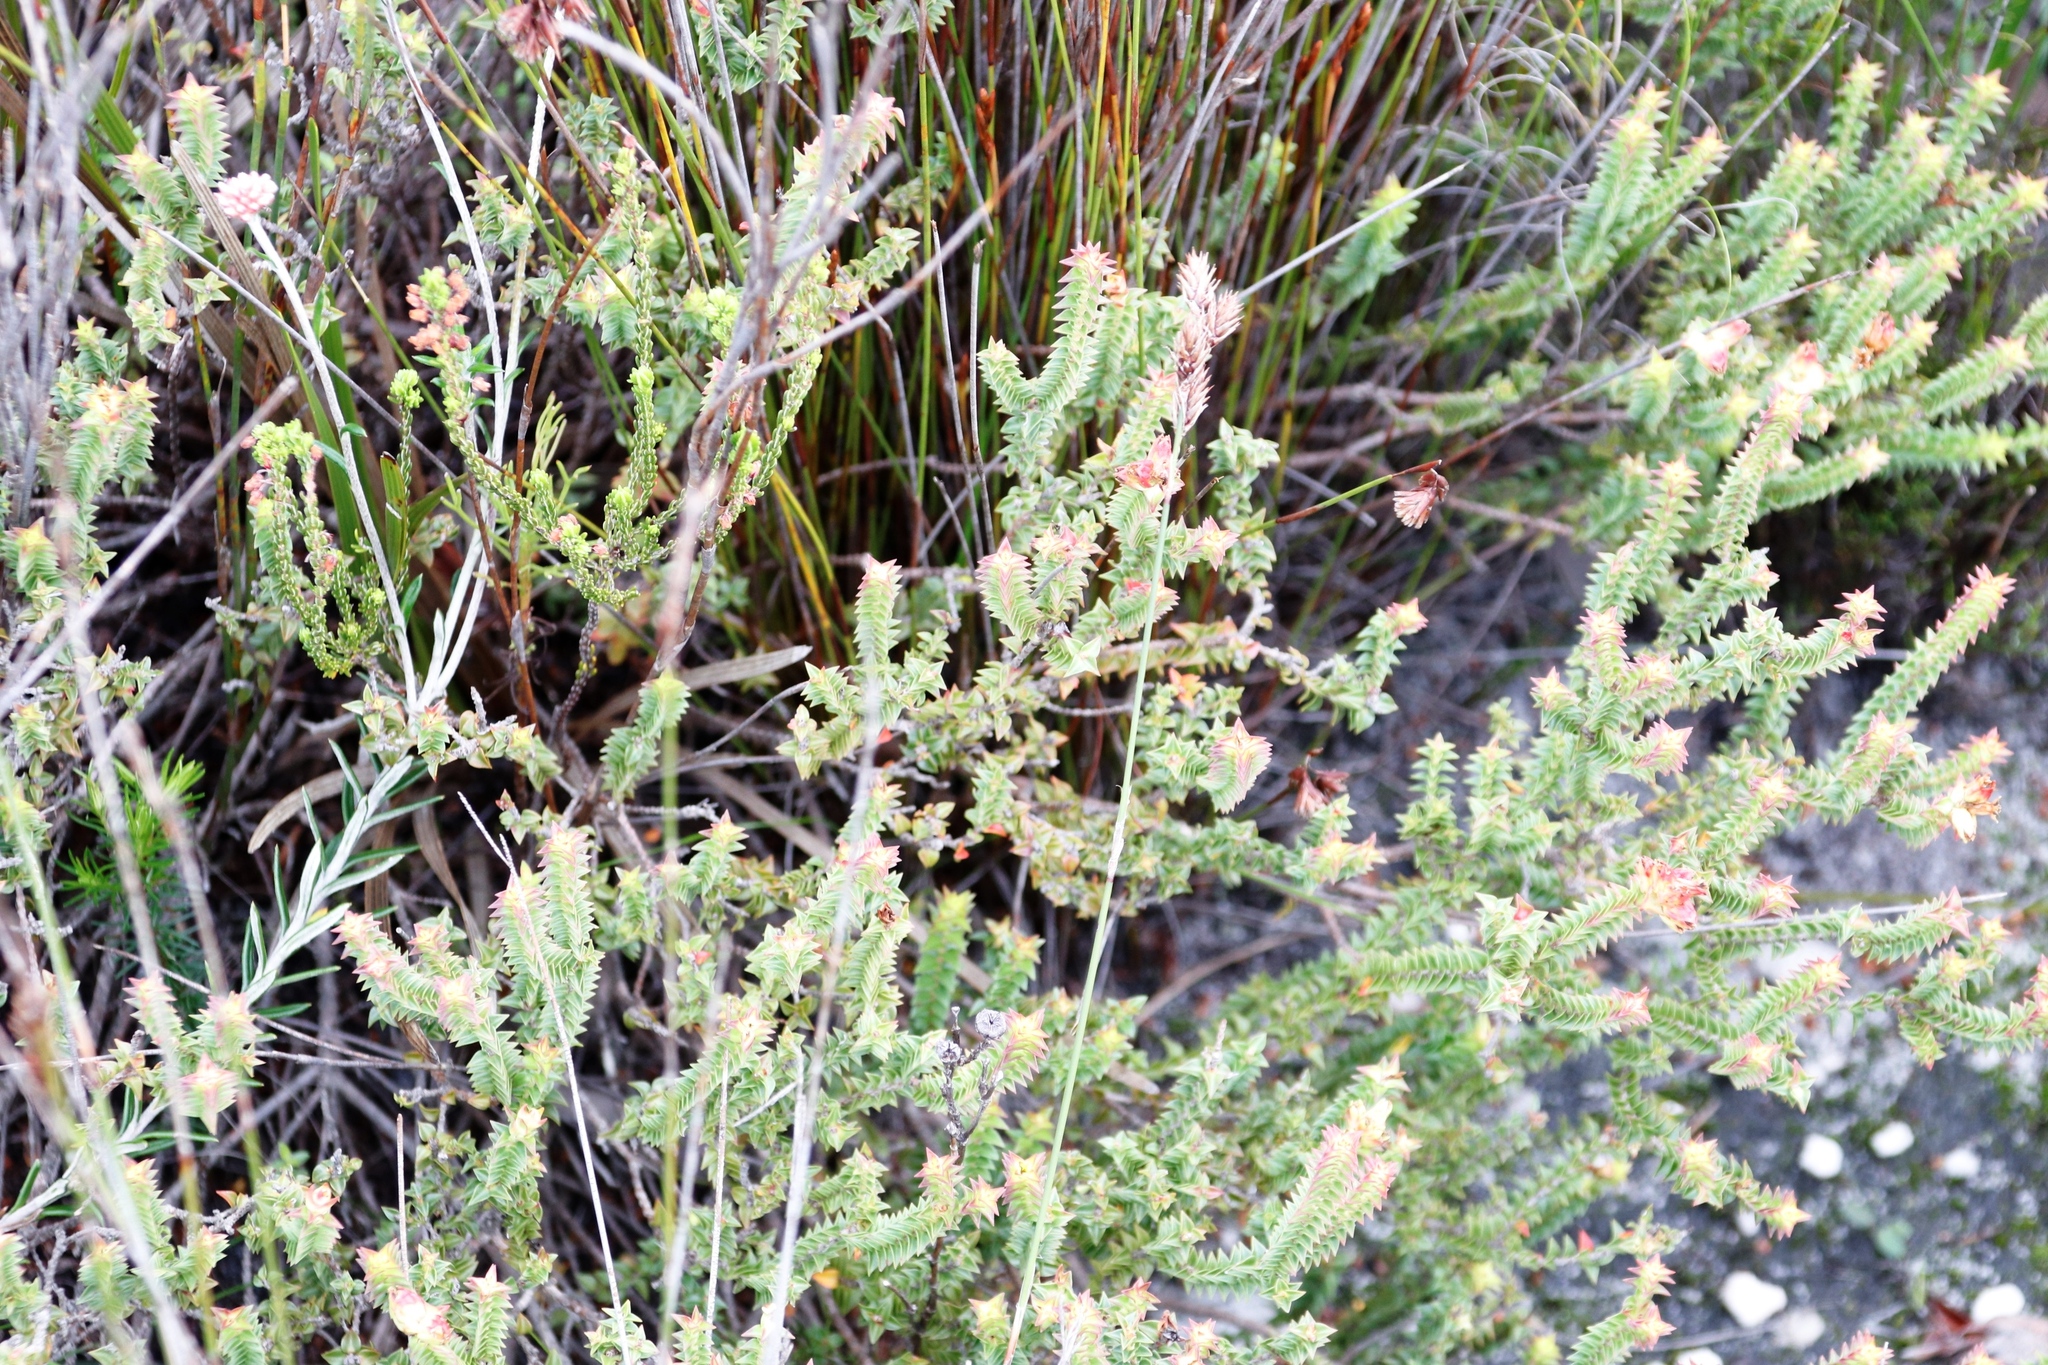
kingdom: Plantae
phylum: Tracheophyta
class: Magnoliopsida
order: Myrtales
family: Penaeaceae
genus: Penaea
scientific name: Penaea mucronata
